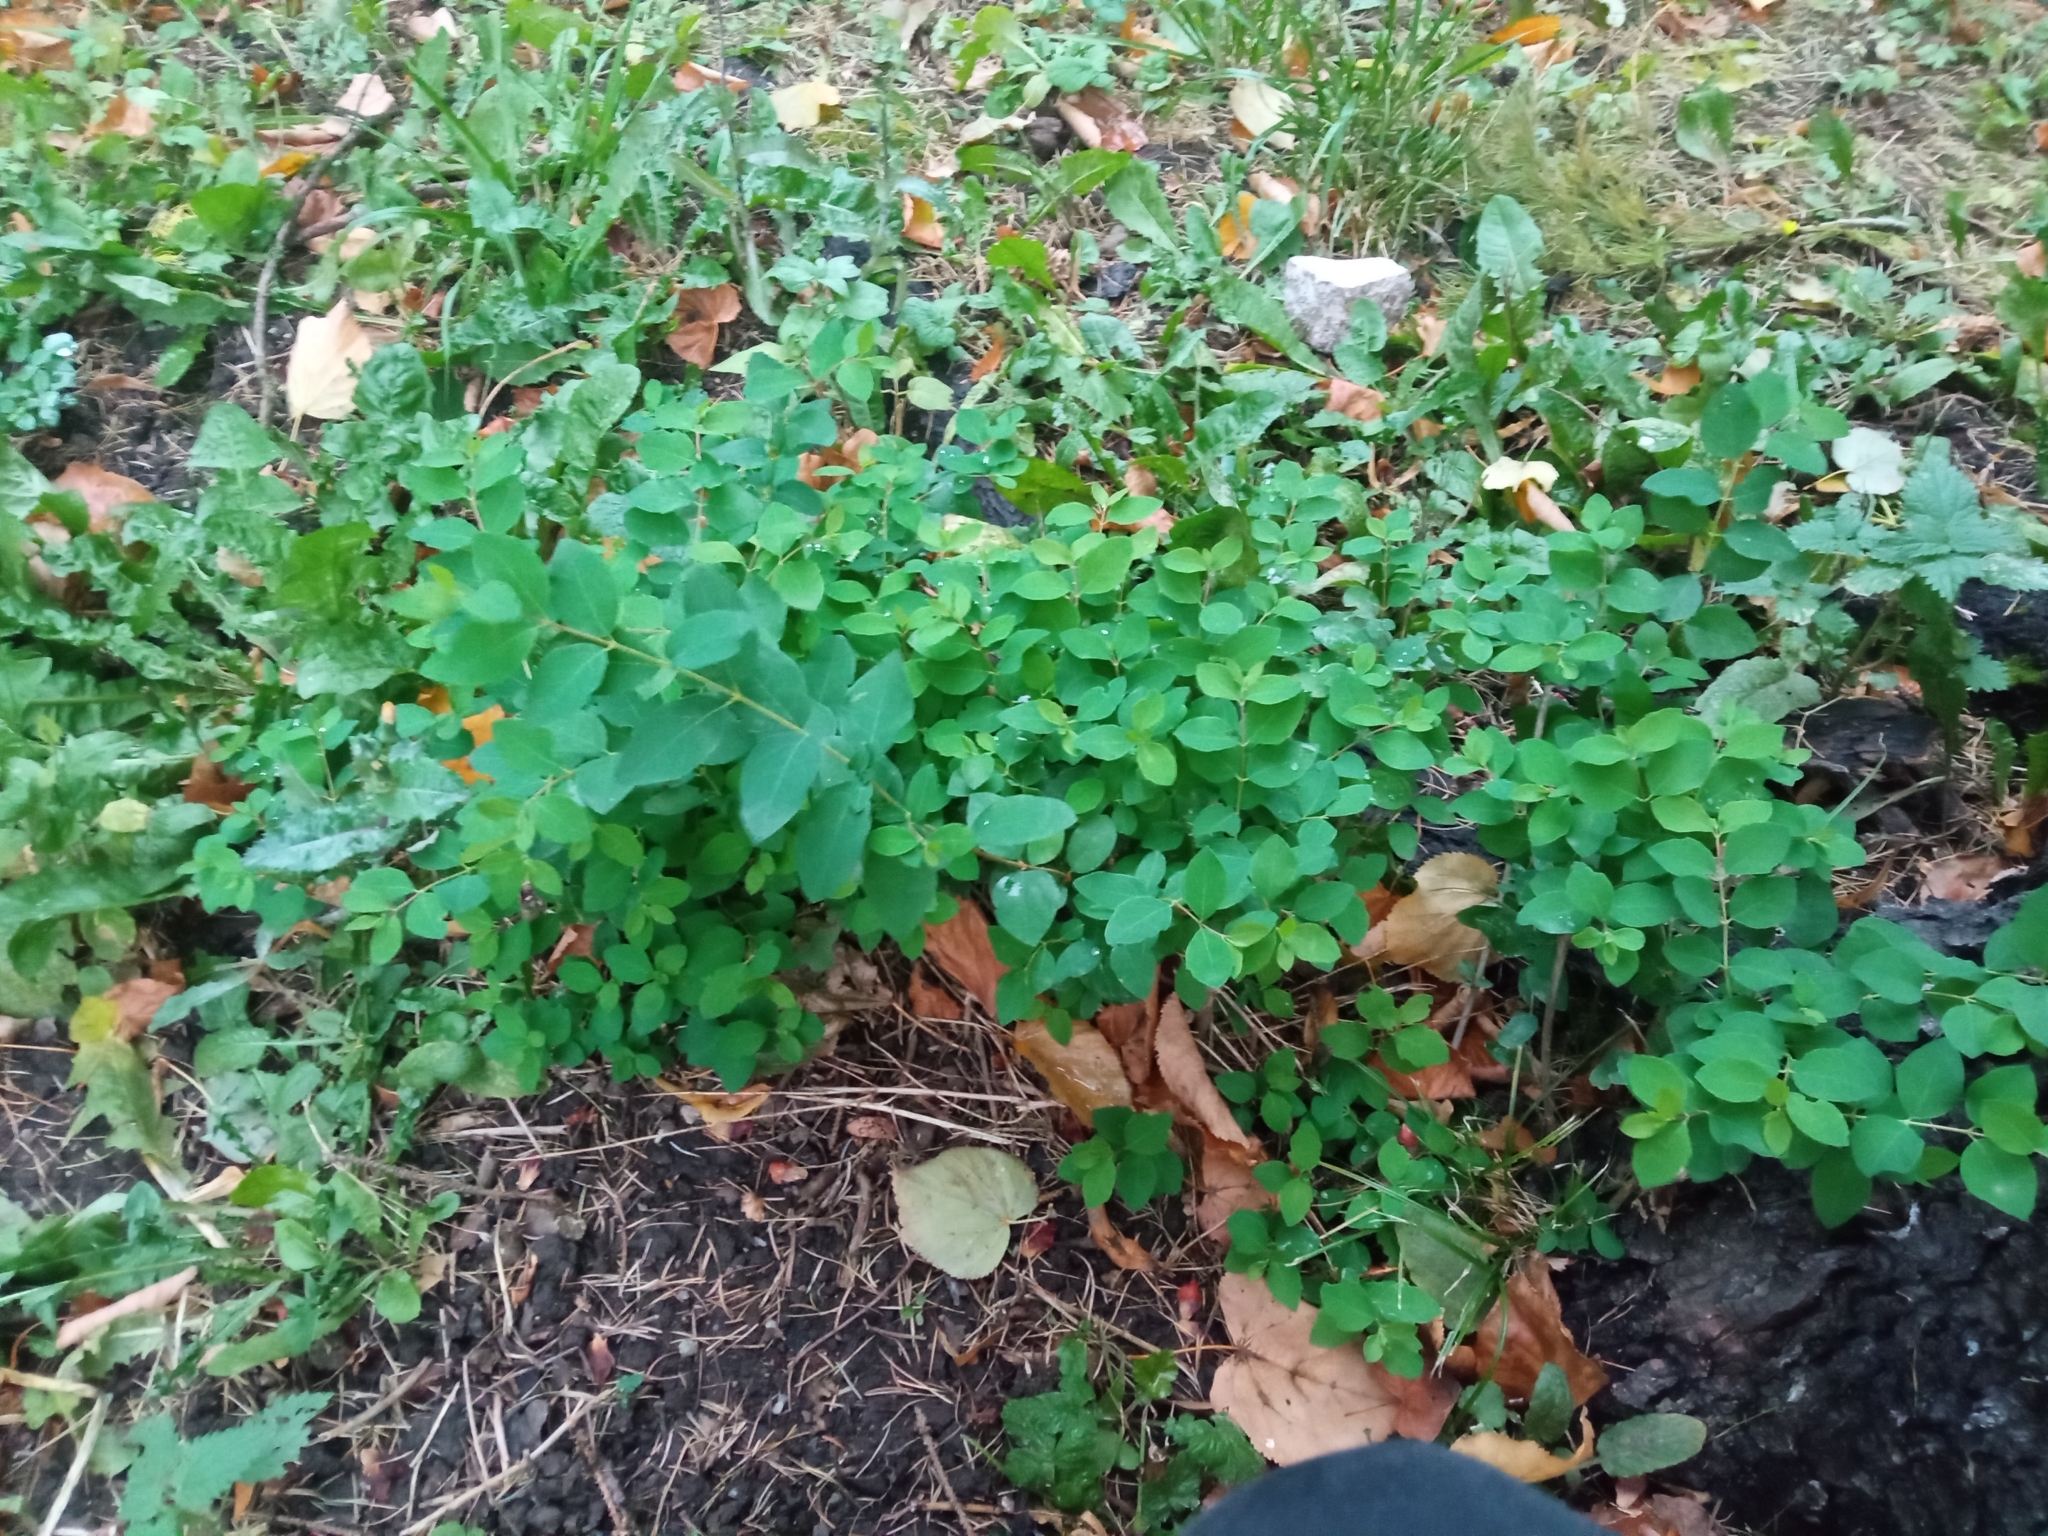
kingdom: Plantae
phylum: Tracheophyta
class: Magnoliopsida
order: Dipsacales
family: Caprifoliaceae
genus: Symphoricarpos
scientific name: Symphoricarpos albus
